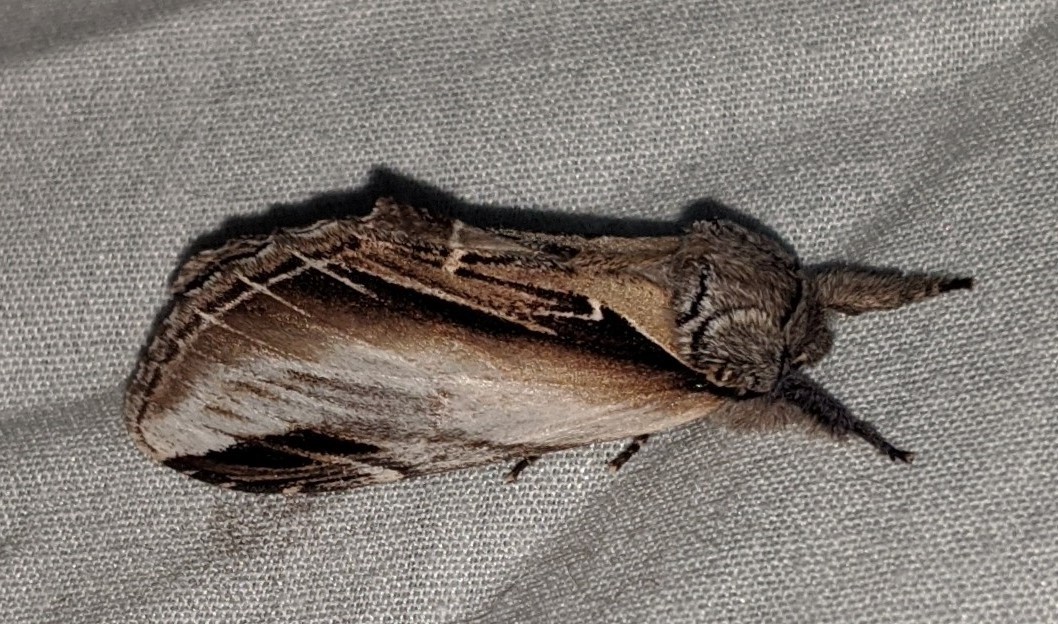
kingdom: Animalia
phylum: Arthropoda
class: Insecta
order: Lepidoptera
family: Notodontidae
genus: Pheosia
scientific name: Pheosia rimosa
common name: Black-rimmed prominent
